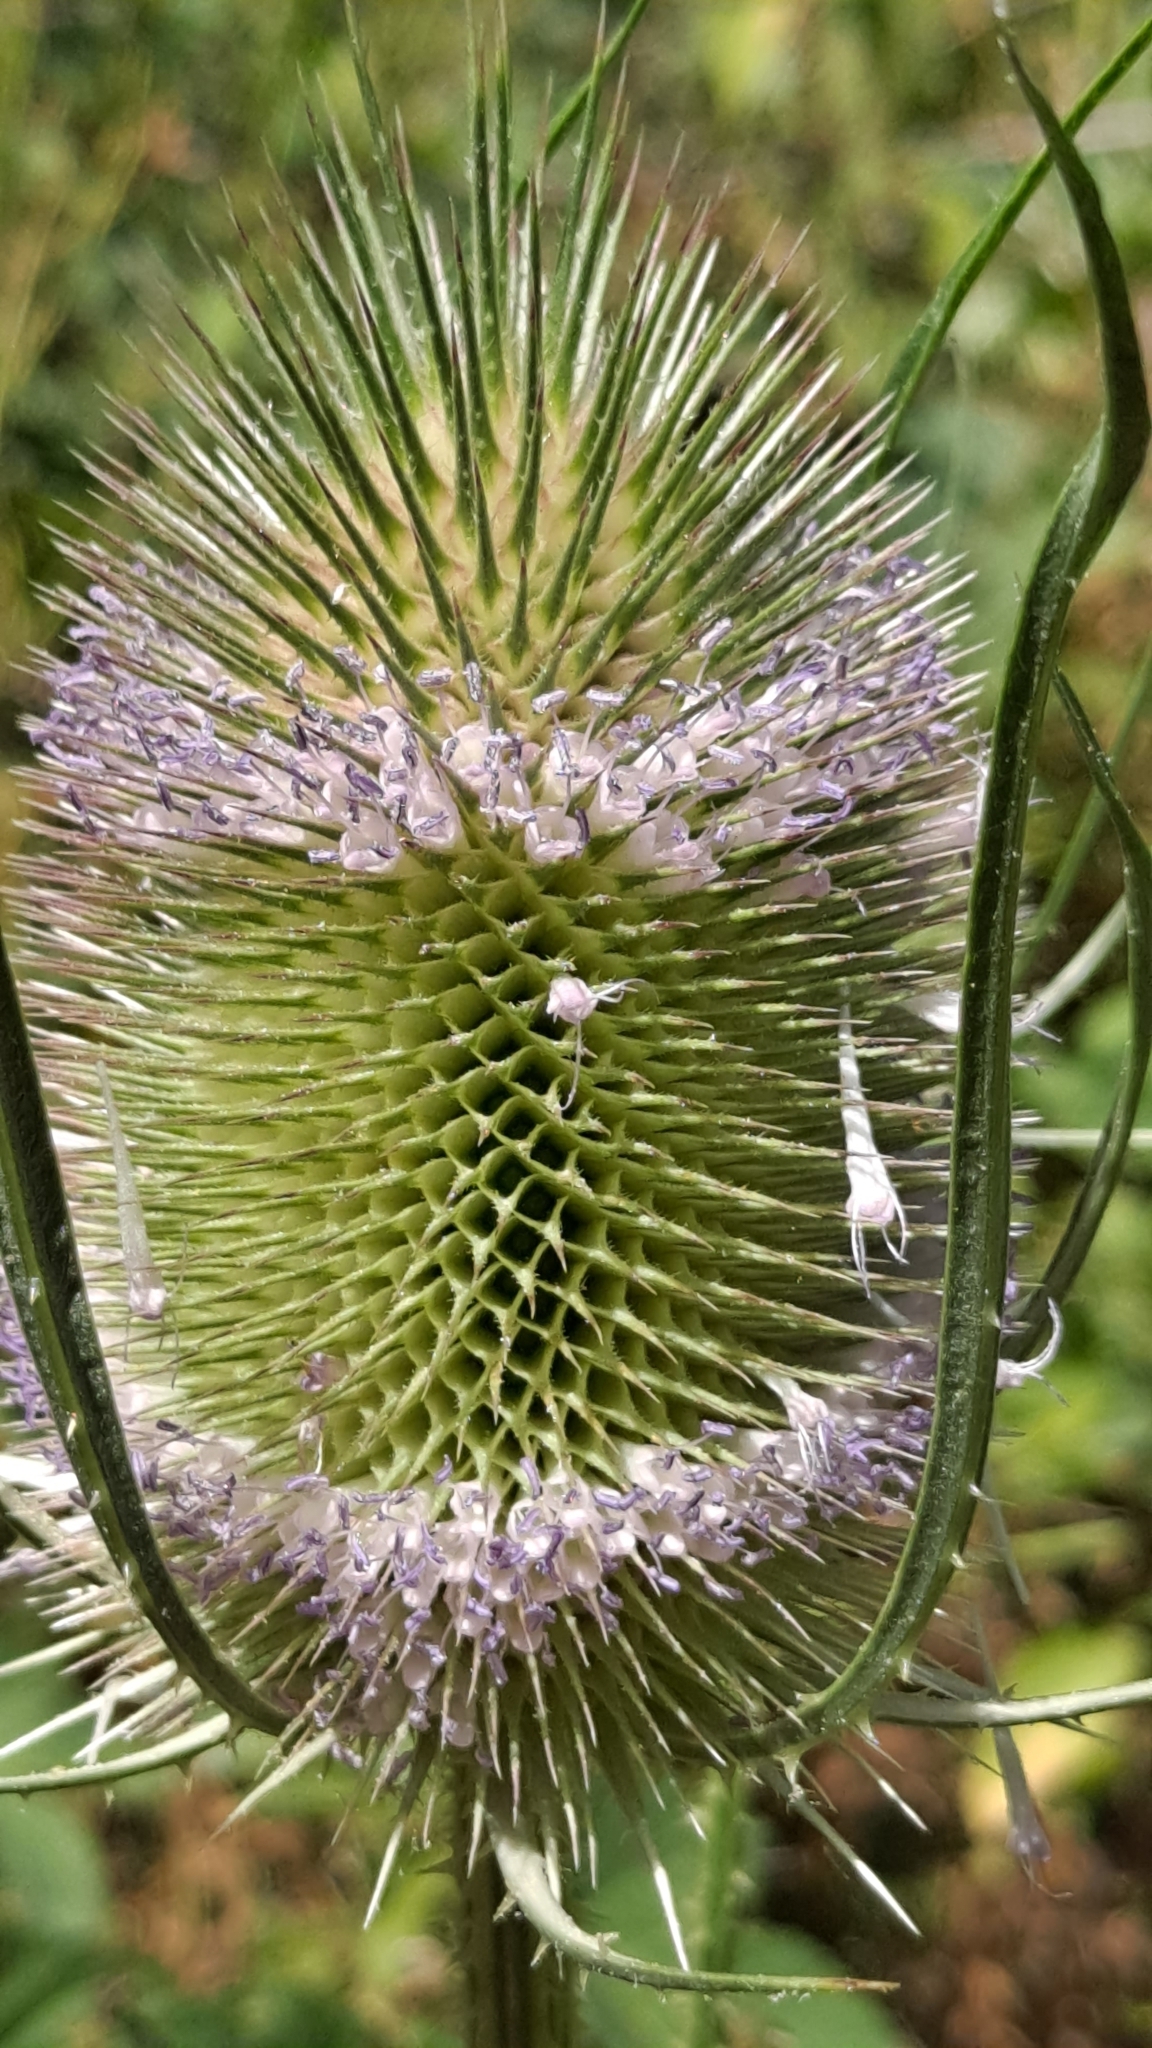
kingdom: Plantae
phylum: Tracheophyta
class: Magnoliopsida
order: Dipsacales
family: Caprifoliaceae
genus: Dipsacus
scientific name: Dipsacus fullonum
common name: Teasel
